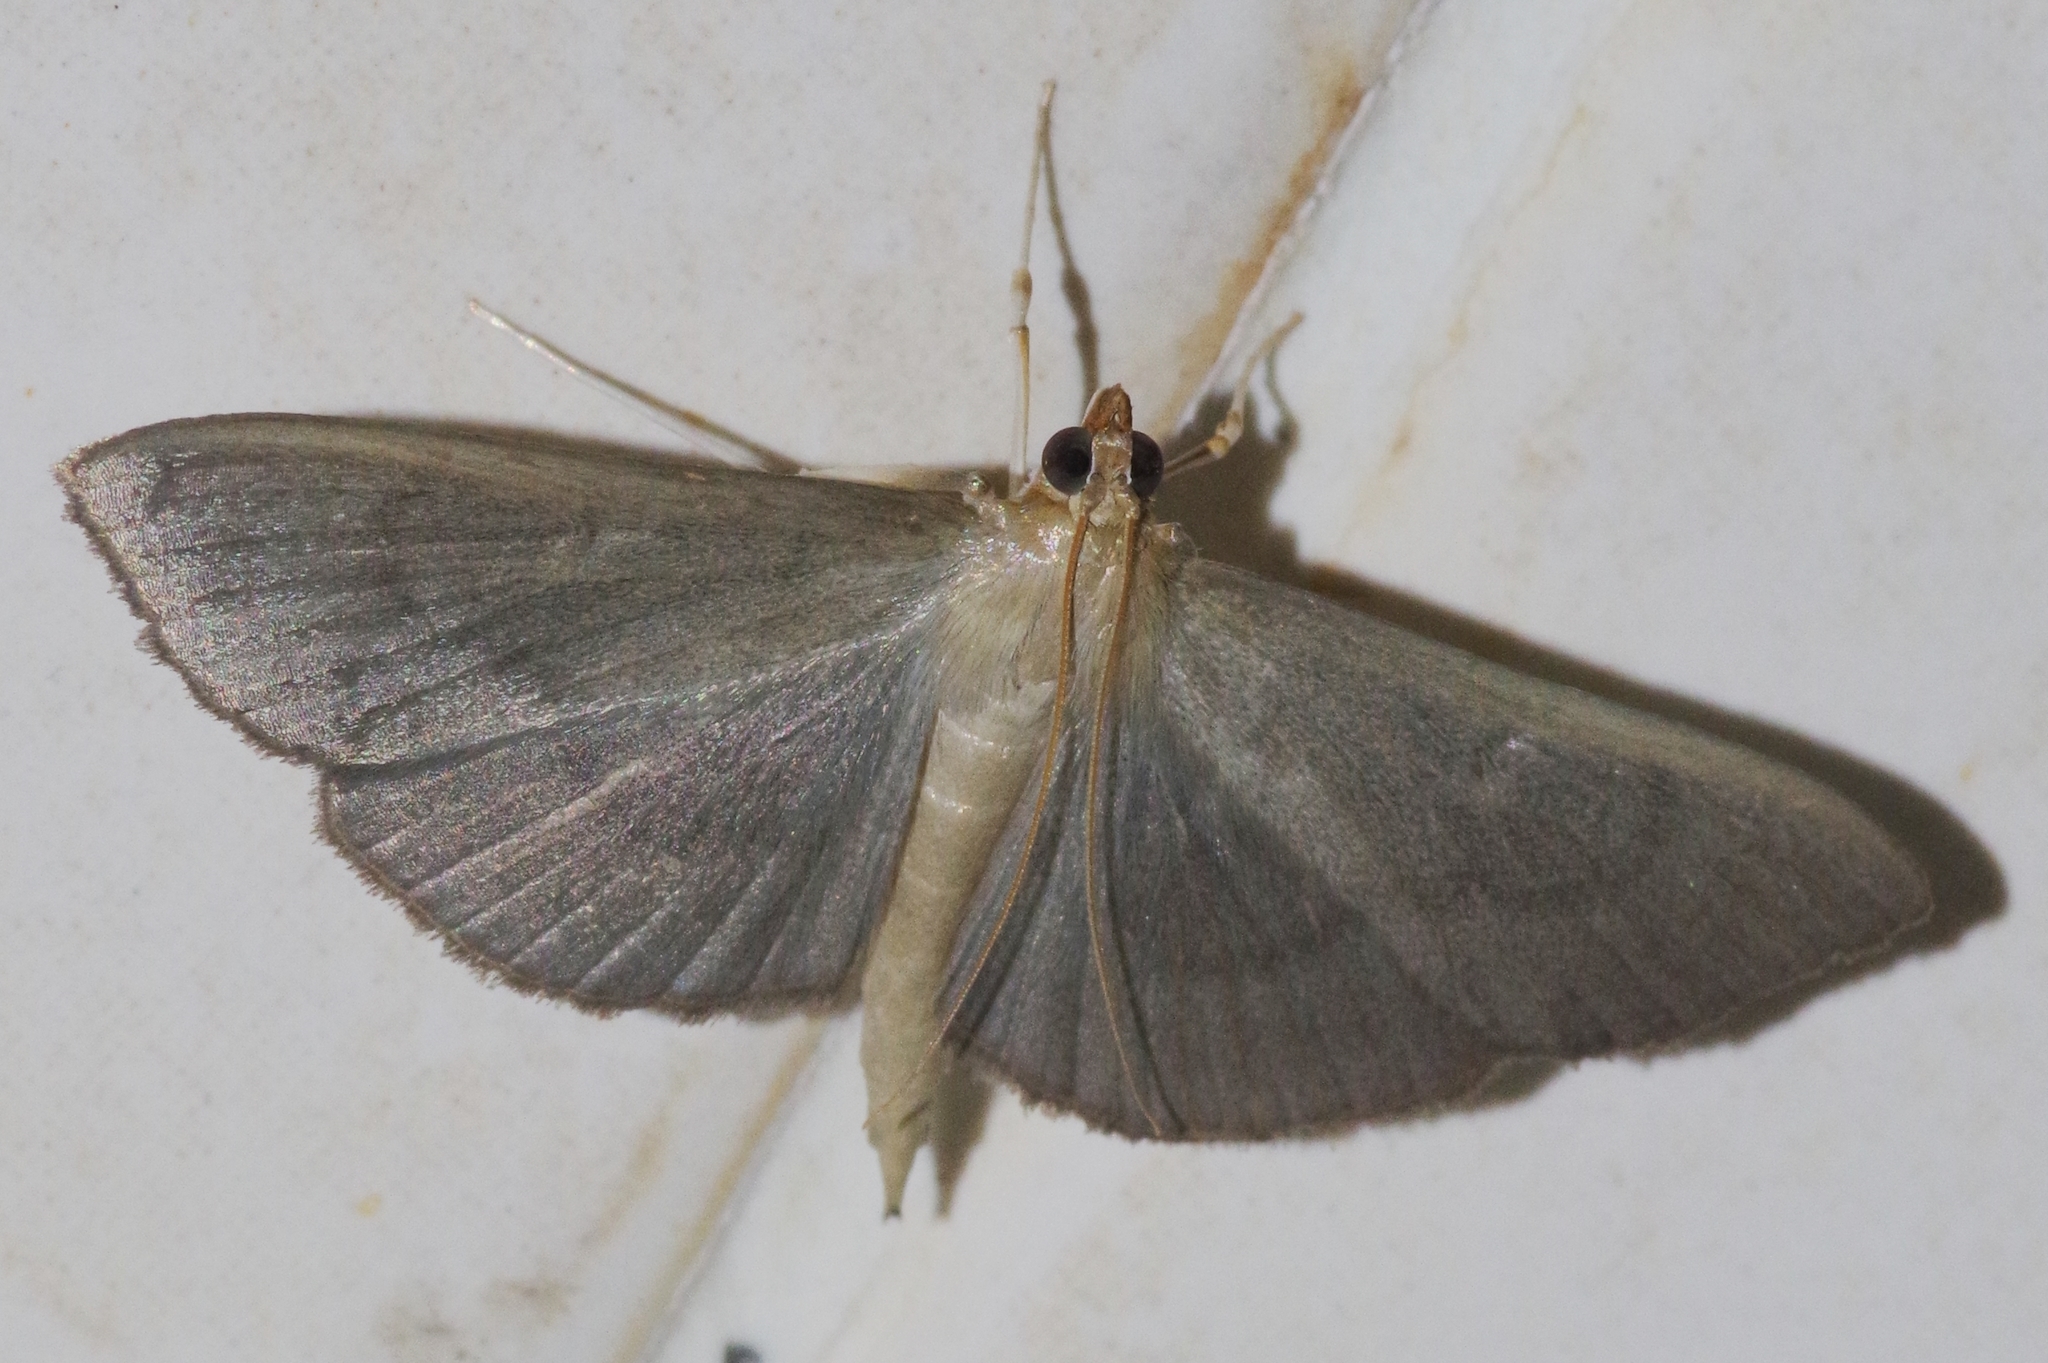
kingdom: Animalia
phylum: Arthropoda
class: Insecta
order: Lepidoptera
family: Crambidae
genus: Glauconoe
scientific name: Glauconoe deductalis
